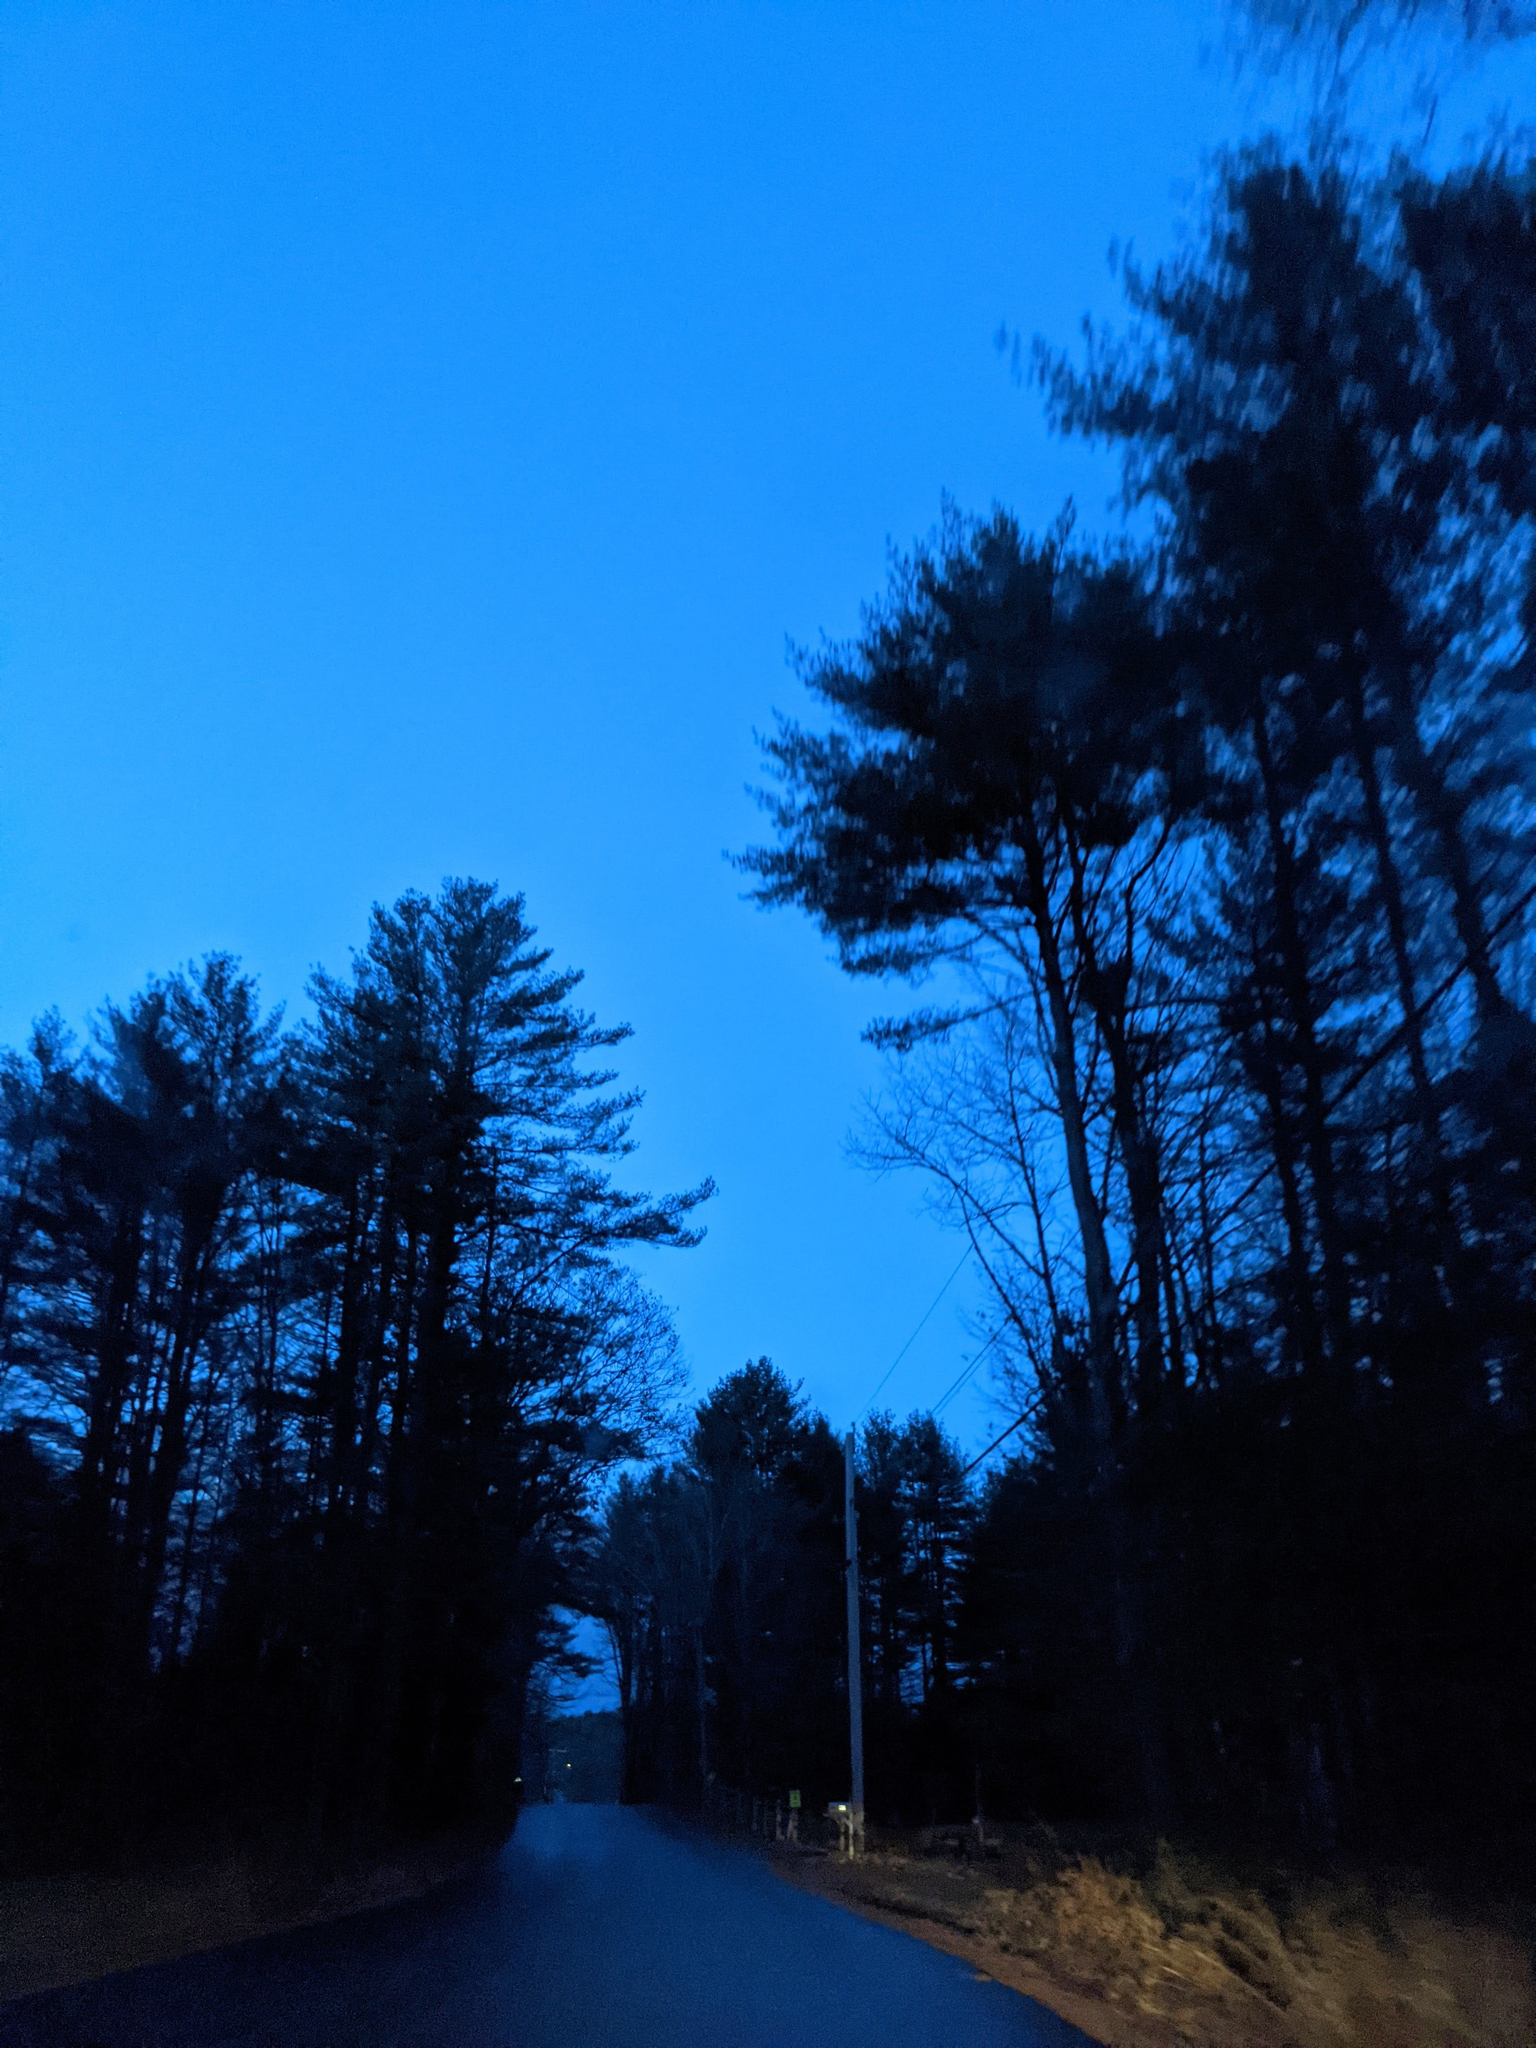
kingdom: Plantae
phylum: Tracheophyta
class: Pinopsida
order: Pinales
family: Pinaceae
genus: Pinus
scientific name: Pinus strobus
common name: Weymouth pine
